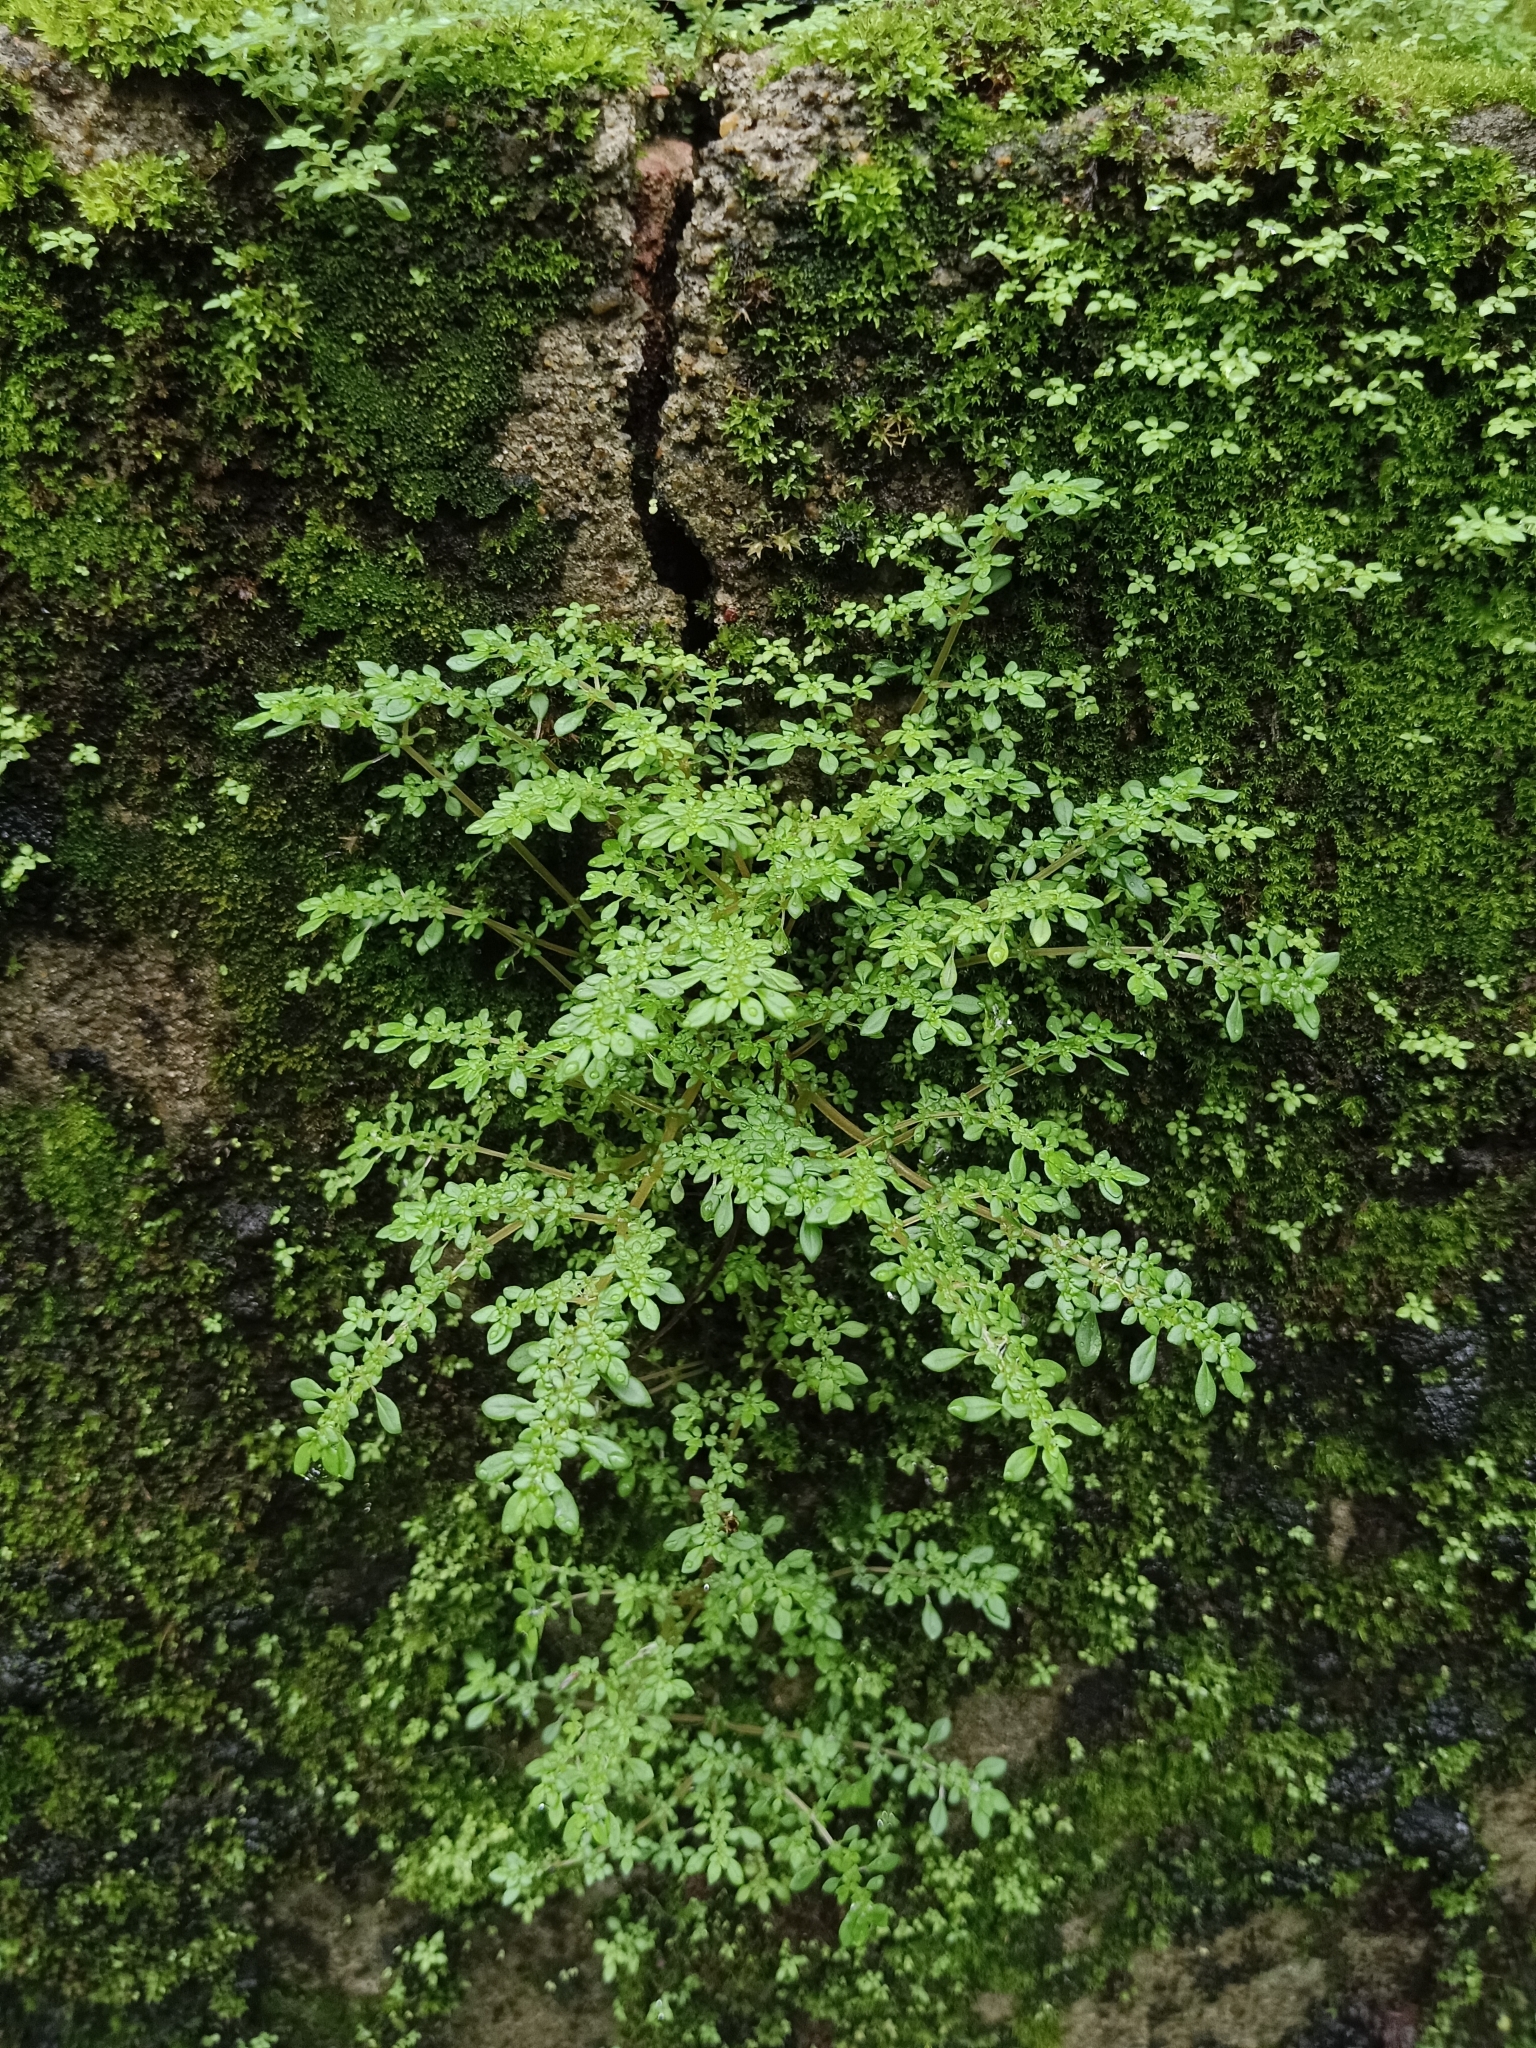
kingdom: Plantae
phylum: Tracheophyta
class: Magnoliopsida
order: Rosales
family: Urticaceae
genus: Pilea
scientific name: Pilea microphylla
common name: Artillery-plant
